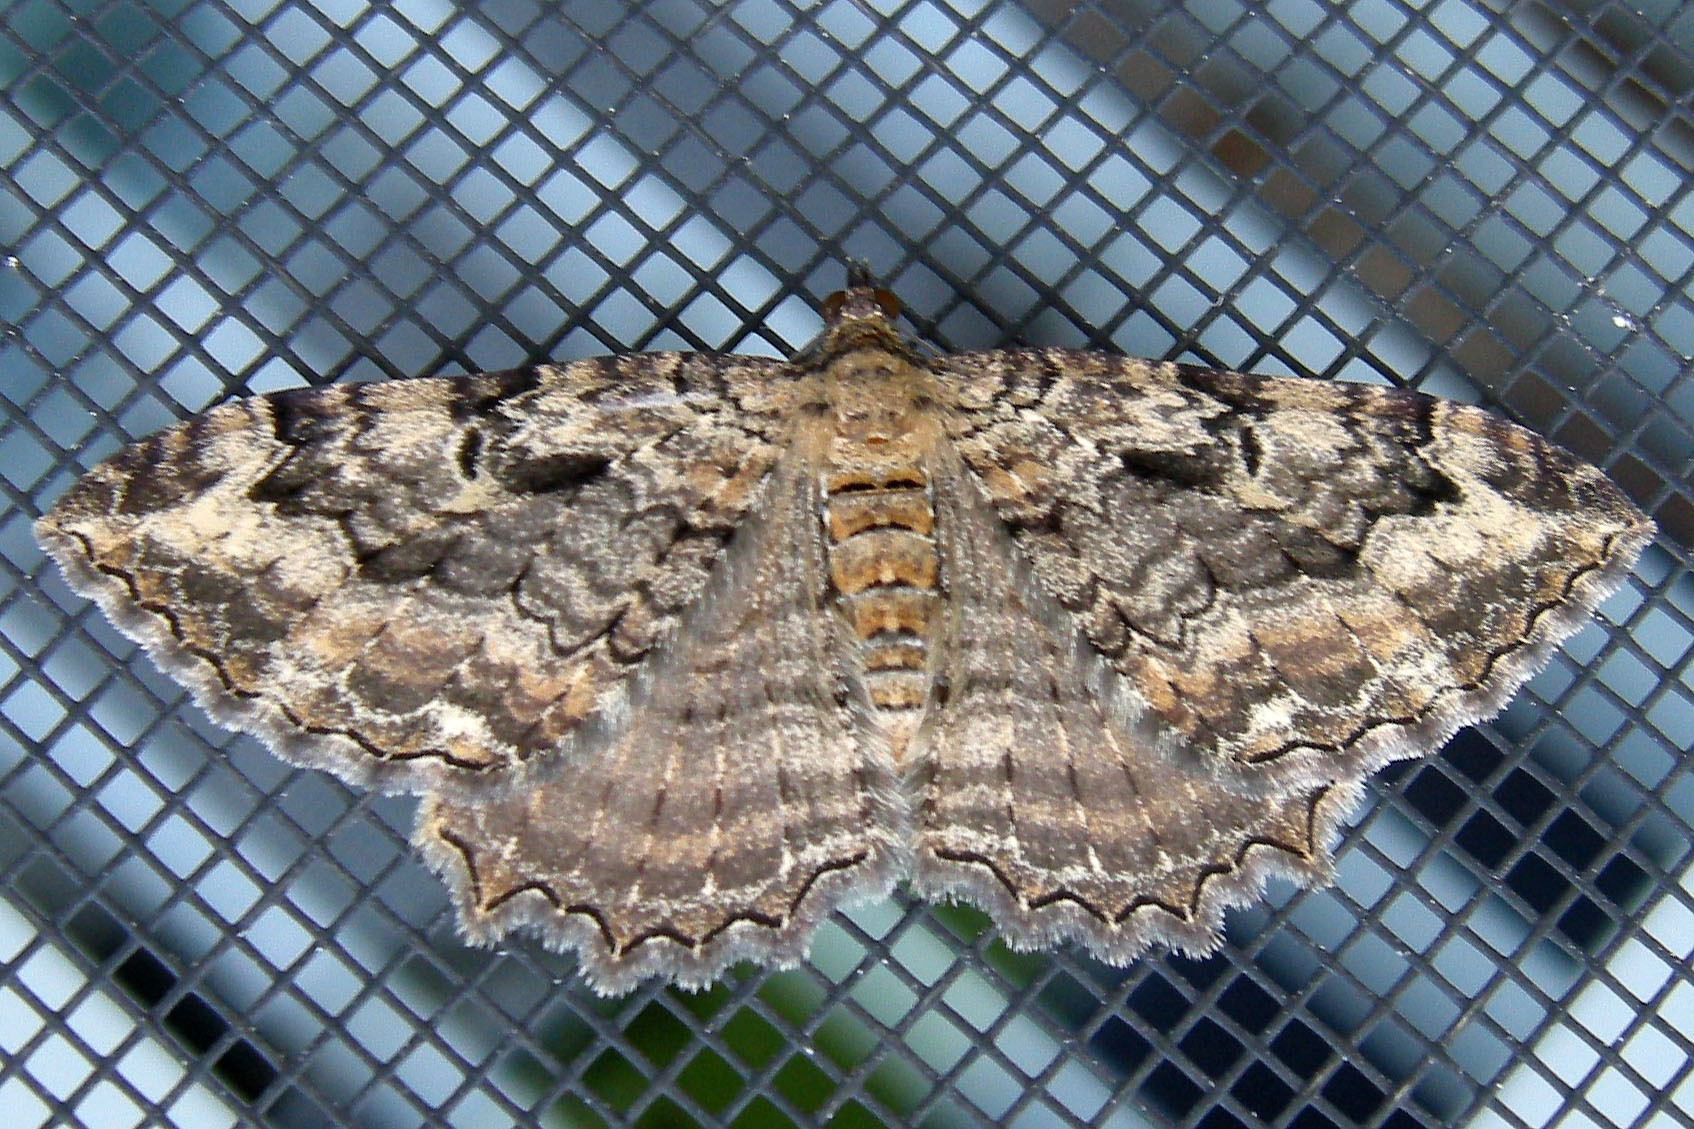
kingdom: Animalia
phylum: Arthropoda
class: Insecta
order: Lepidoptera
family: Geometridae
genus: Rheumaptera
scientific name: Rheumaptera
